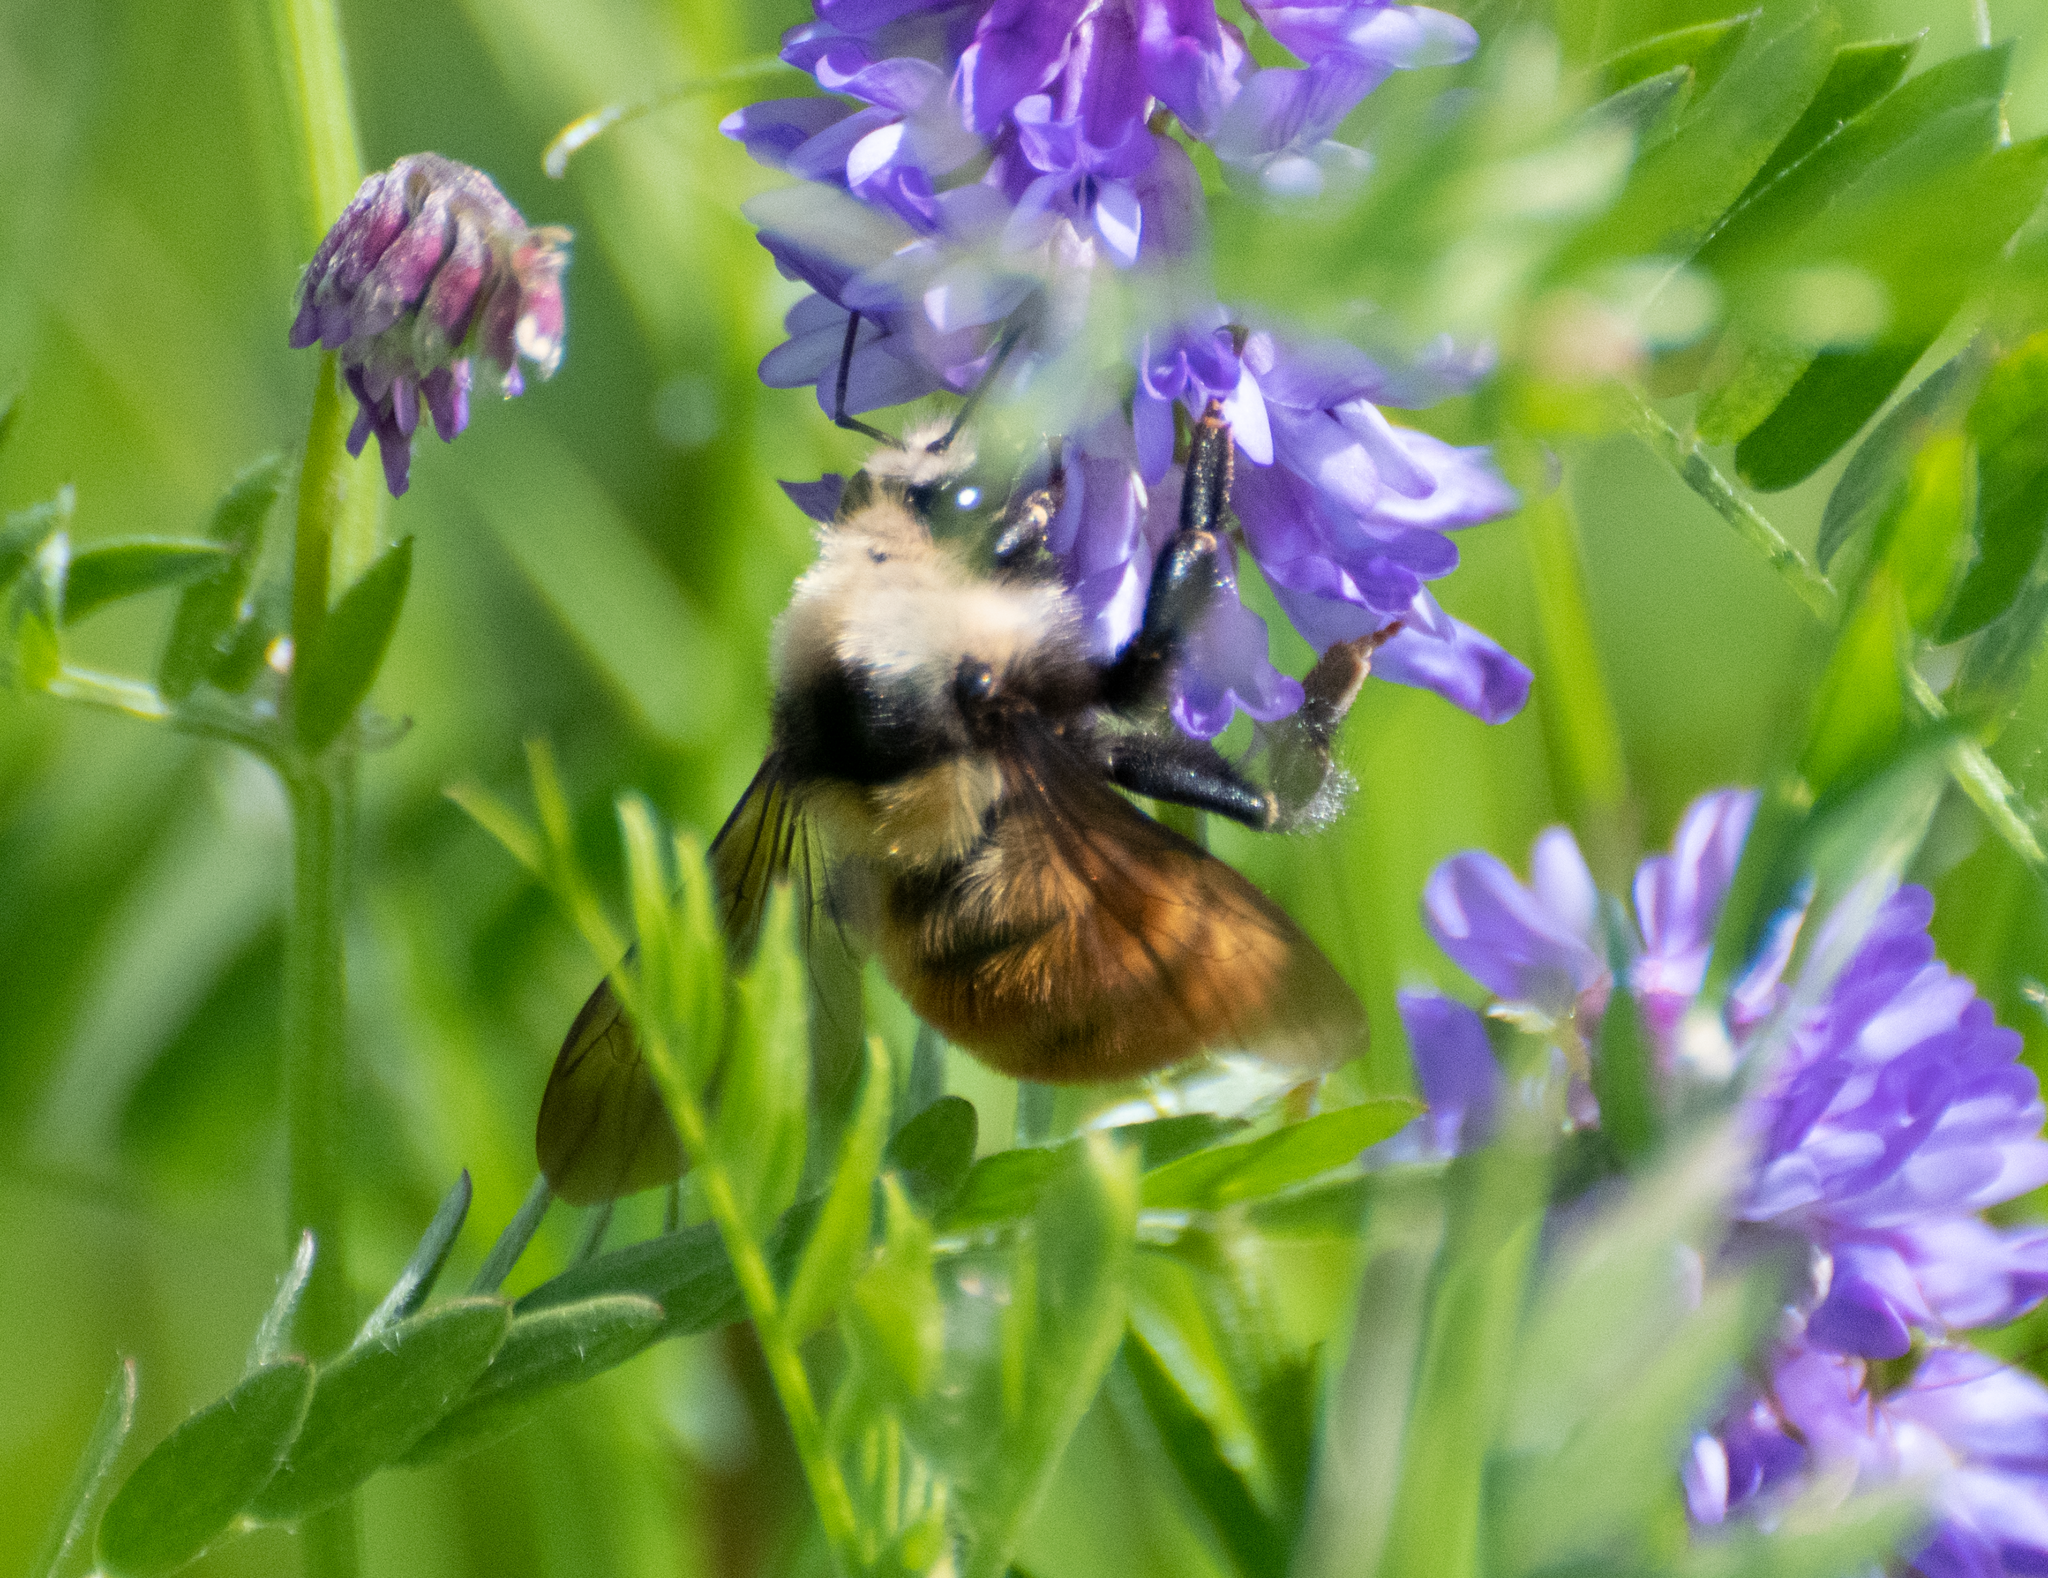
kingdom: Animalia
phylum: Arthropoda
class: Insecta
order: Hymenoptera
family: Apidae
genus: Bombus
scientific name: Bombus appositus
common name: White-shouldered bumble bee
